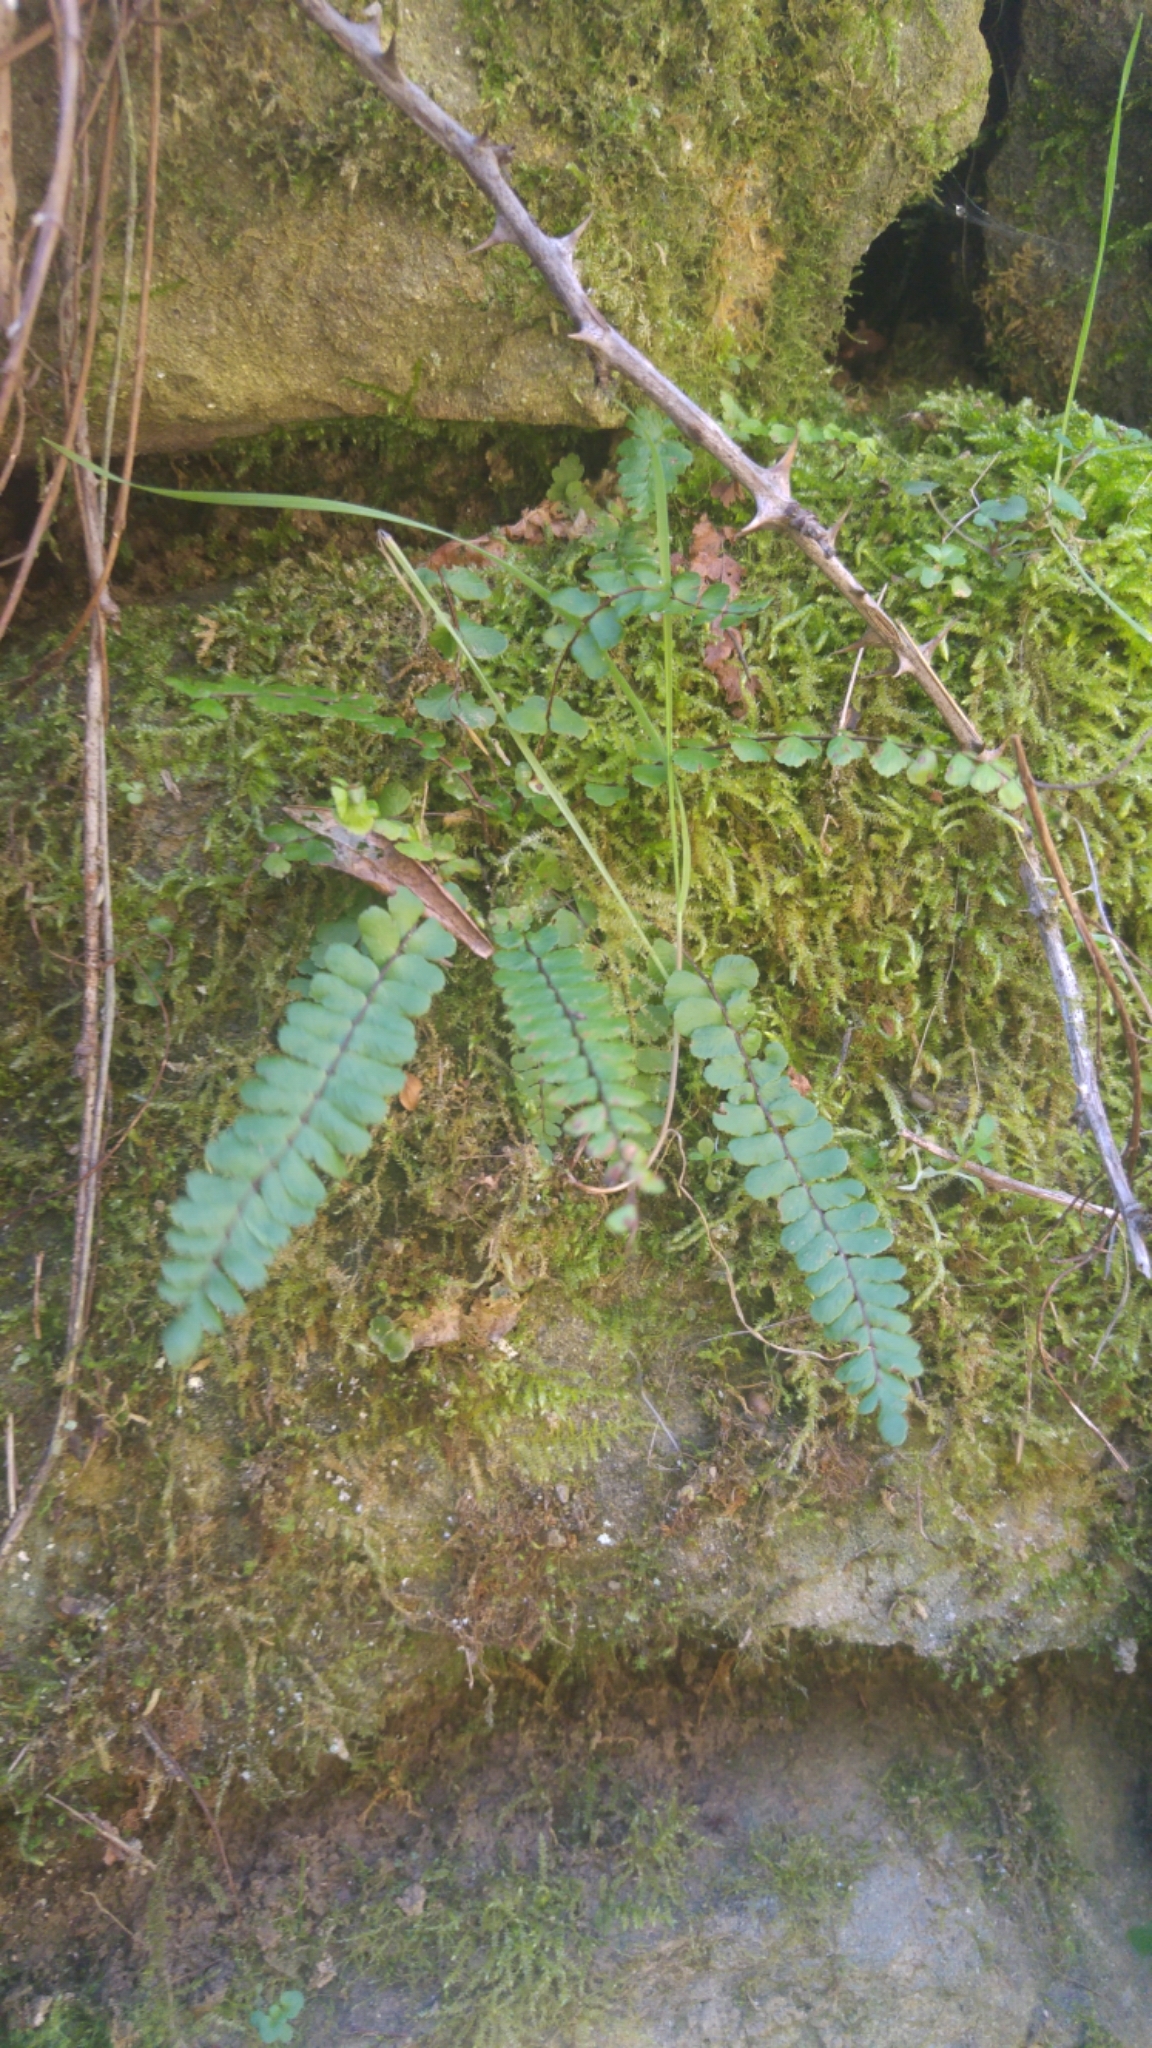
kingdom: Plantae
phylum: Tracheophyta
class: Polypodiopsida
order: Polypodiales
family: Aspleniaceae
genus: Asplenium
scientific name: Asplenium trichomanes
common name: Maidenhair spleenwort
